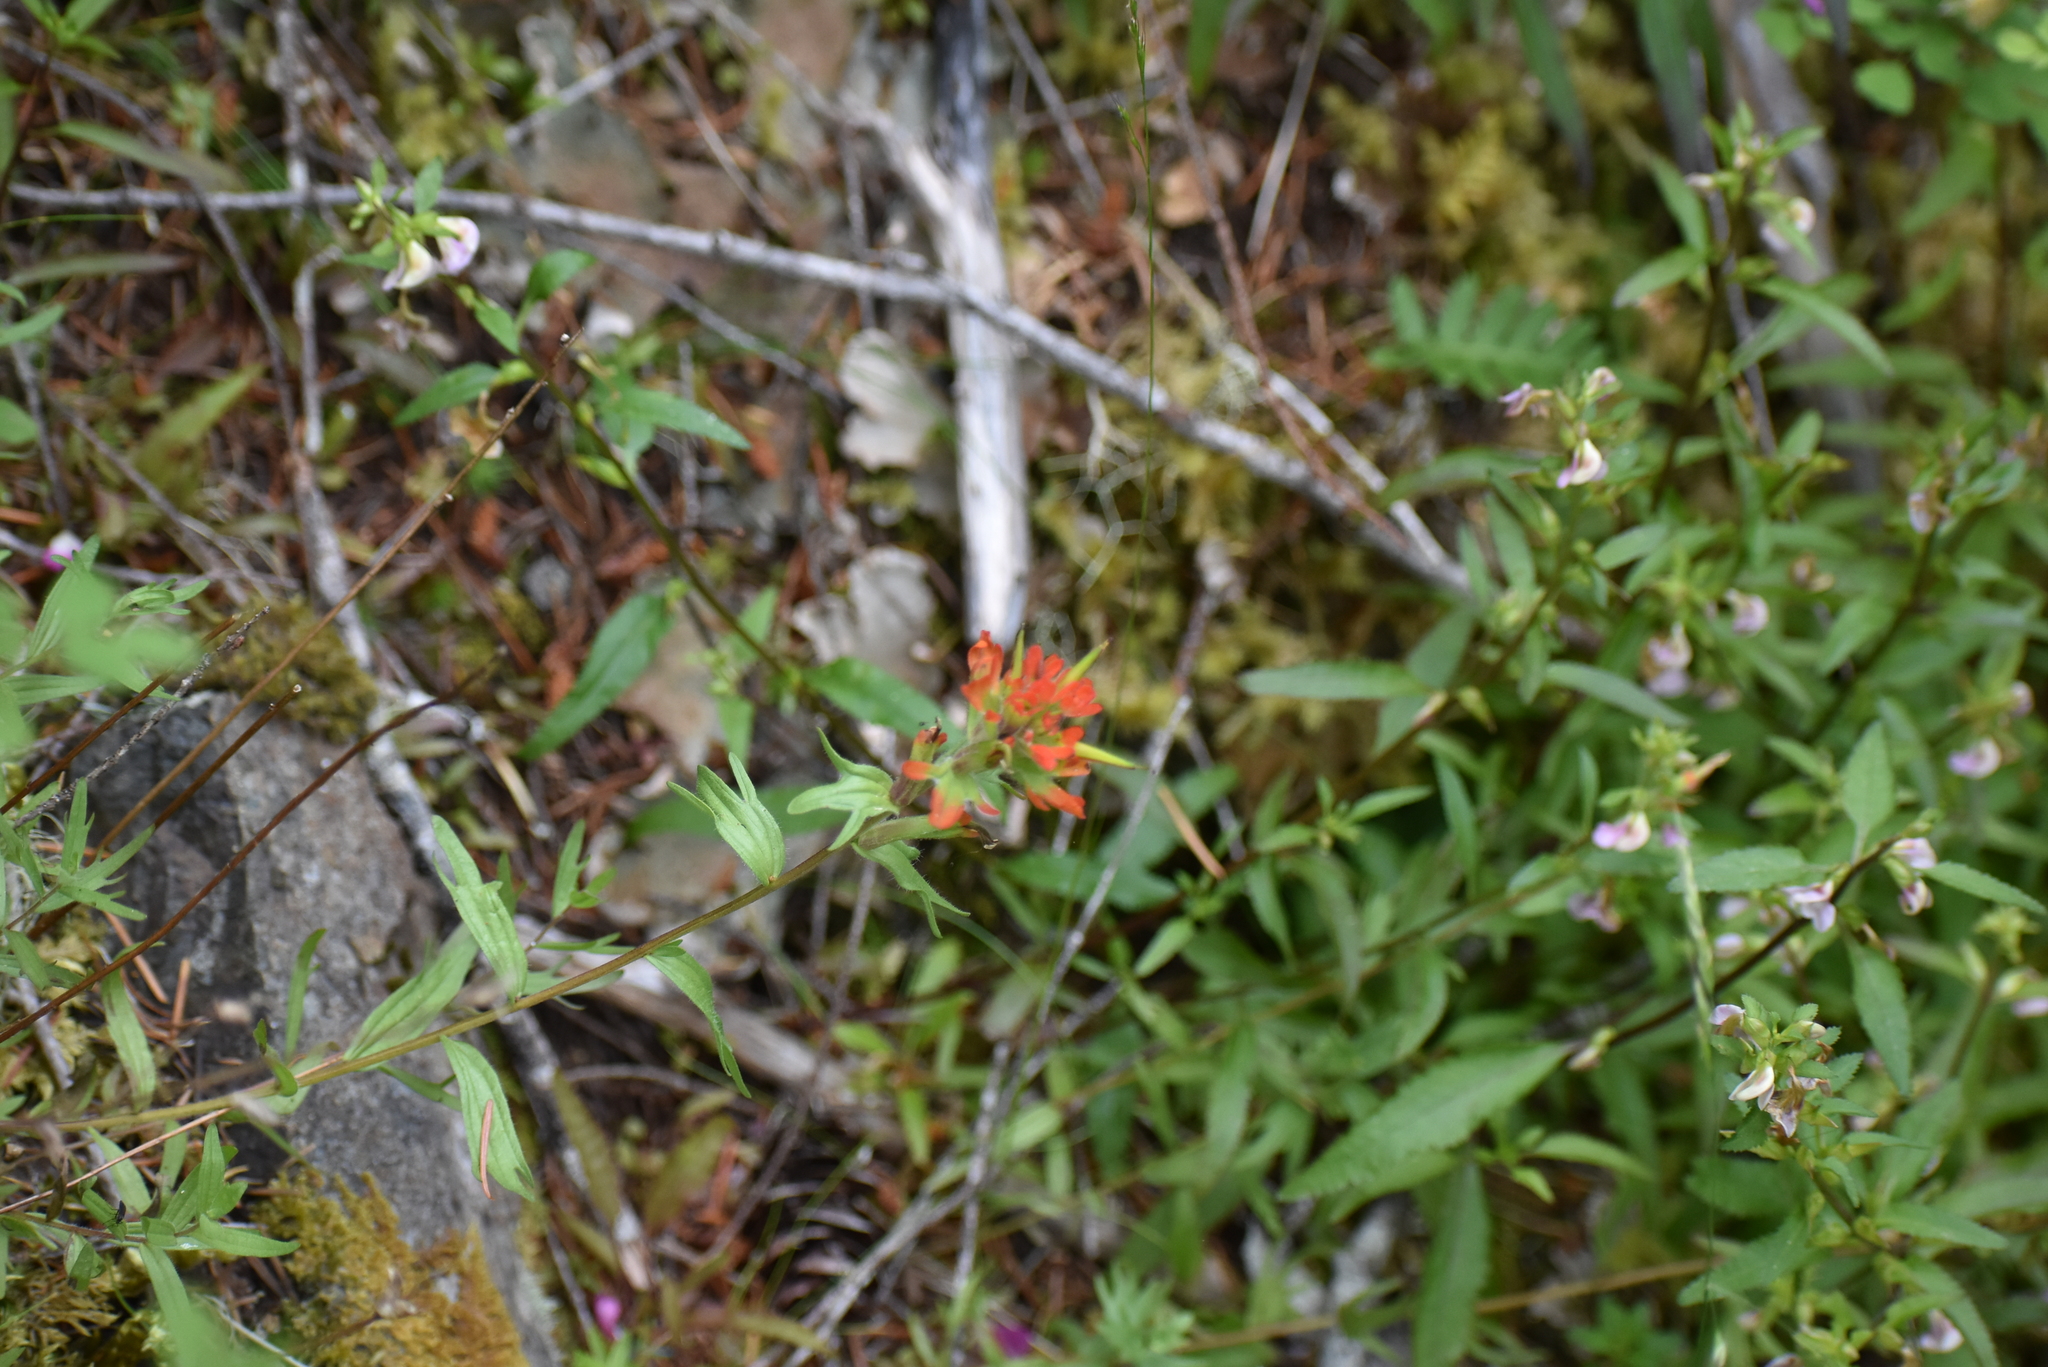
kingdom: Plantae
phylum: Tracheophyta
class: Magnoliopsida
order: Lamiales
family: Orobanchaceae
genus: Castilleja
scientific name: Castilleja hispida
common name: Bristly paintbrush
